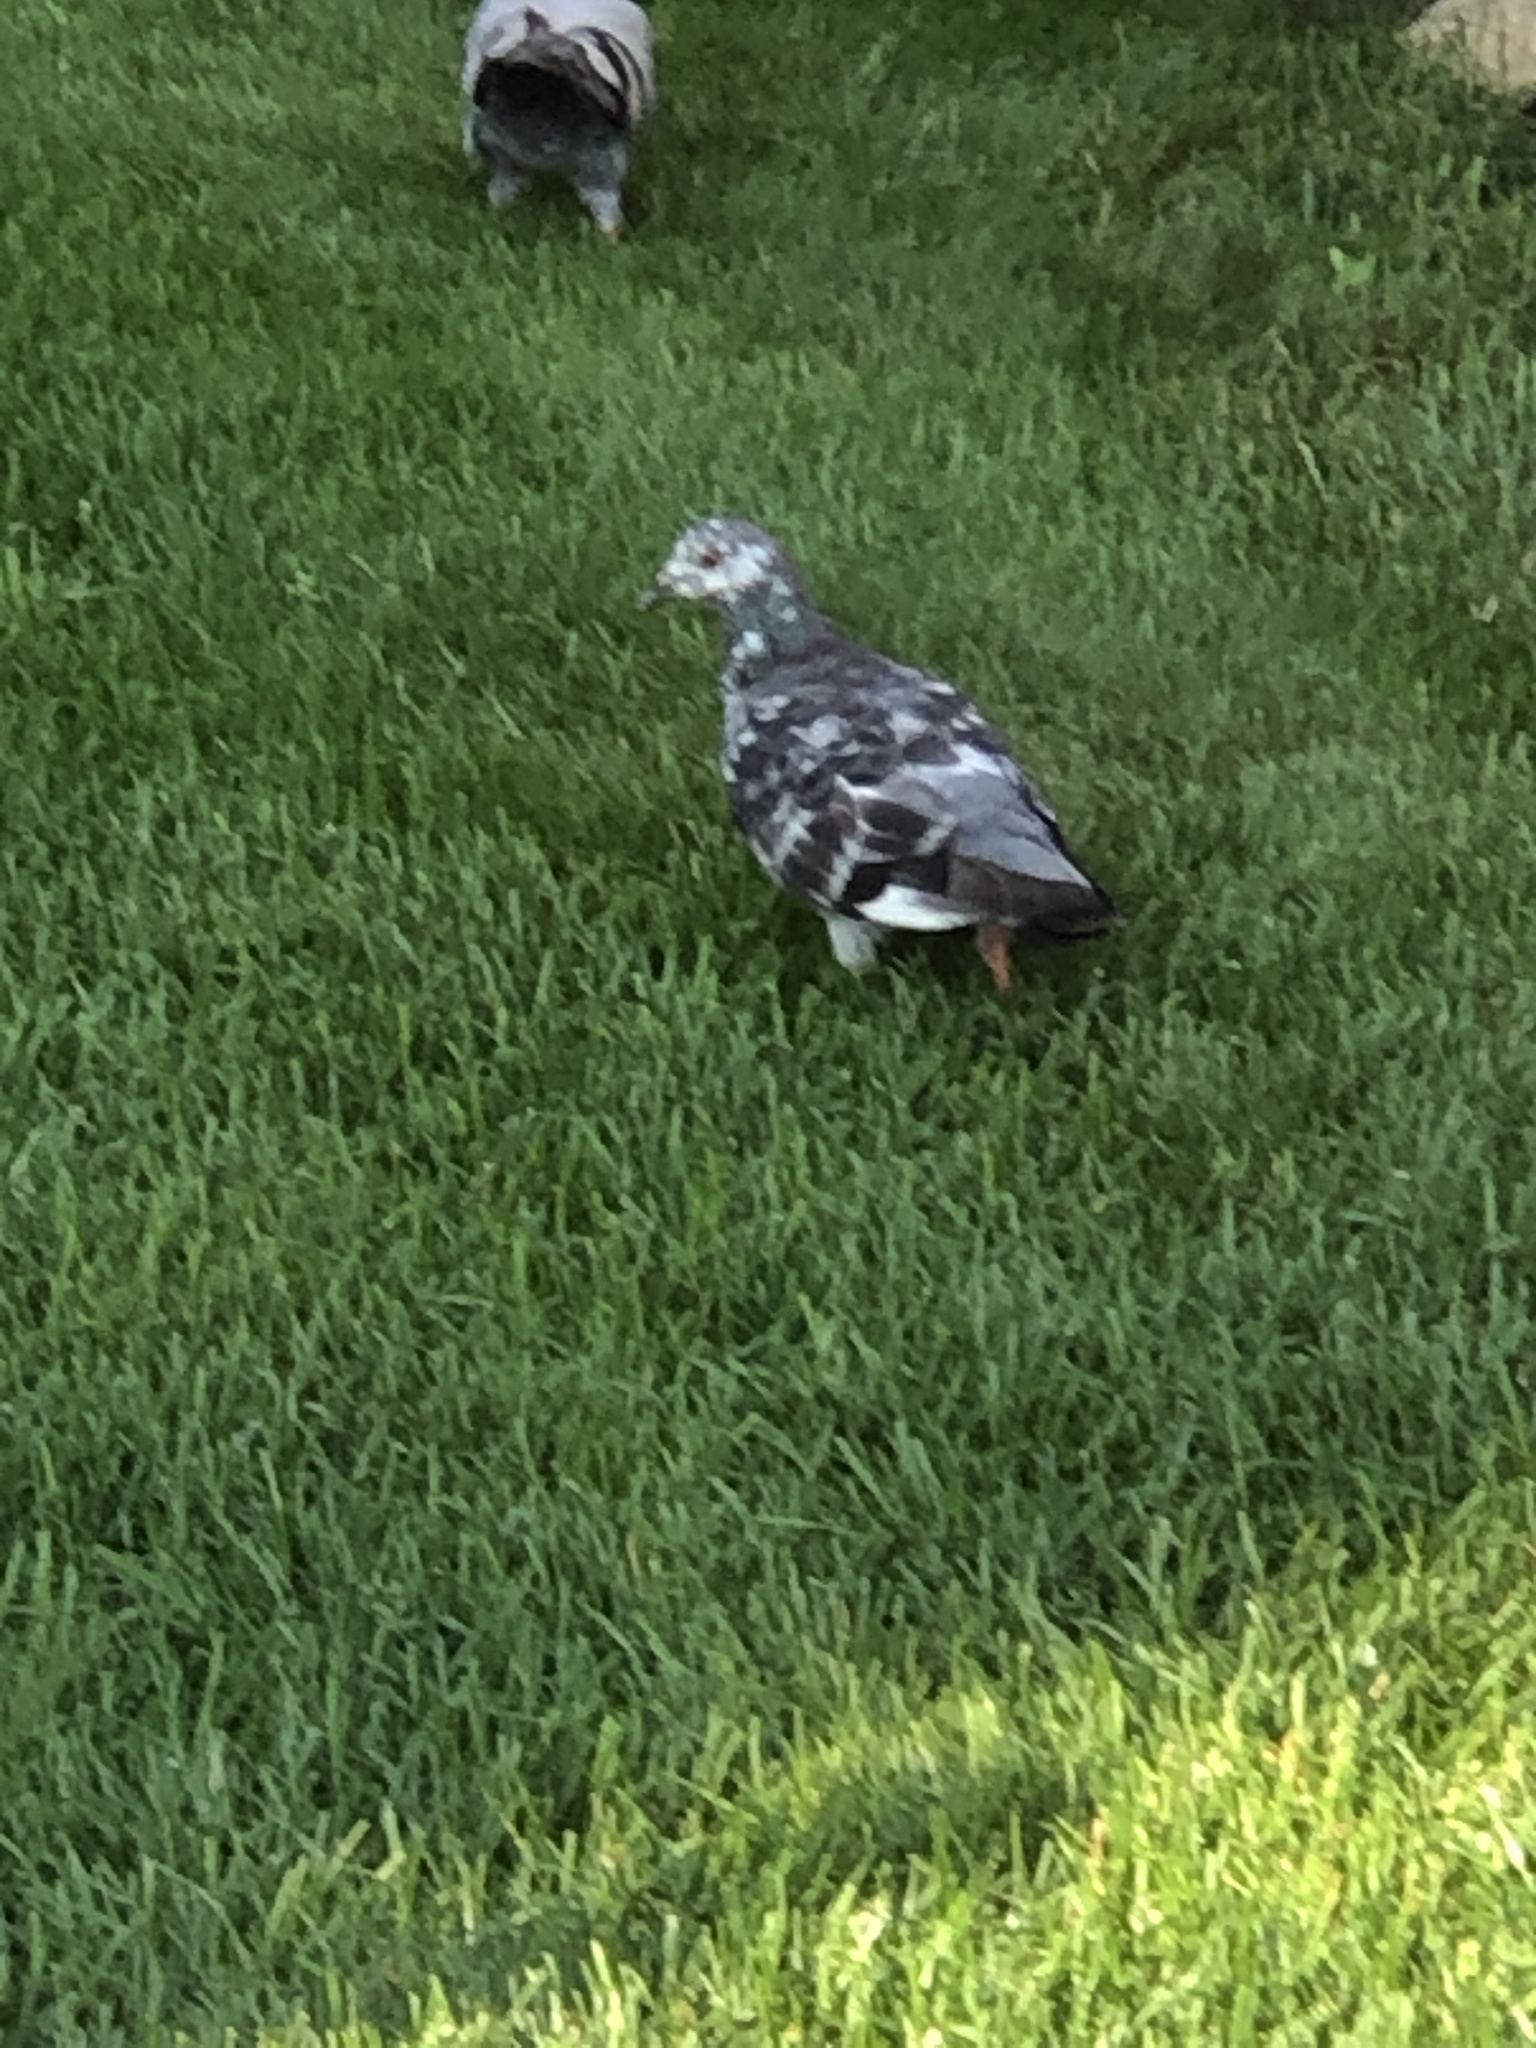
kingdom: Animalia
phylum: Chordata
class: Aves
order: Columbiformes
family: Columbidae
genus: Columba
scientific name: Columba livia
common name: Rock pigeon
